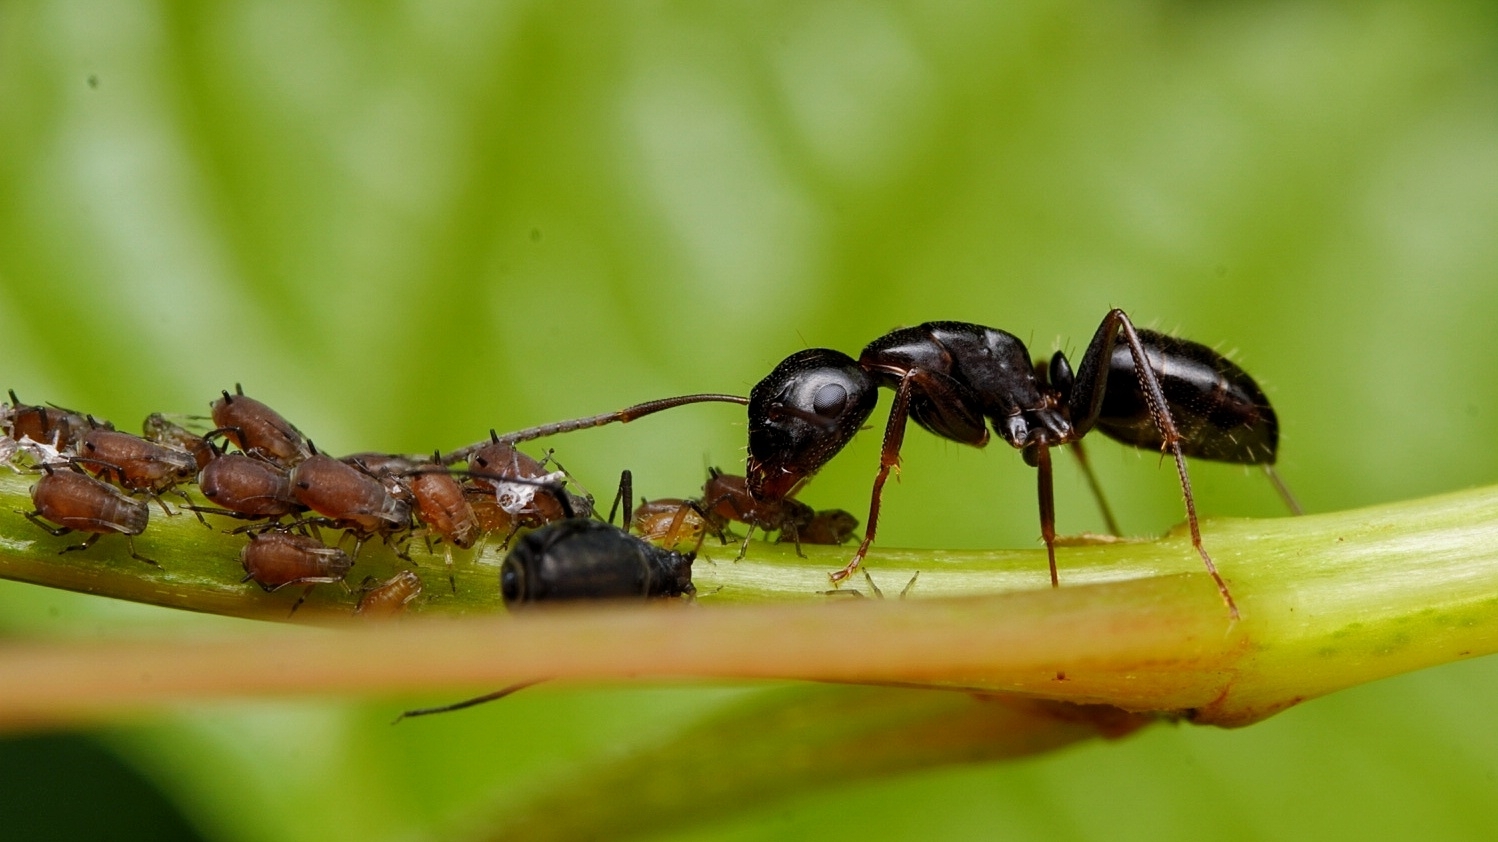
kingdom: Animalia
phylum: Arthropoda
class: Insecta
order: Hymenoptera
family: Formicidae
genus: Camponotus
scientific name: Camponotus nearcticus
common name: Smaller carpenter ant
